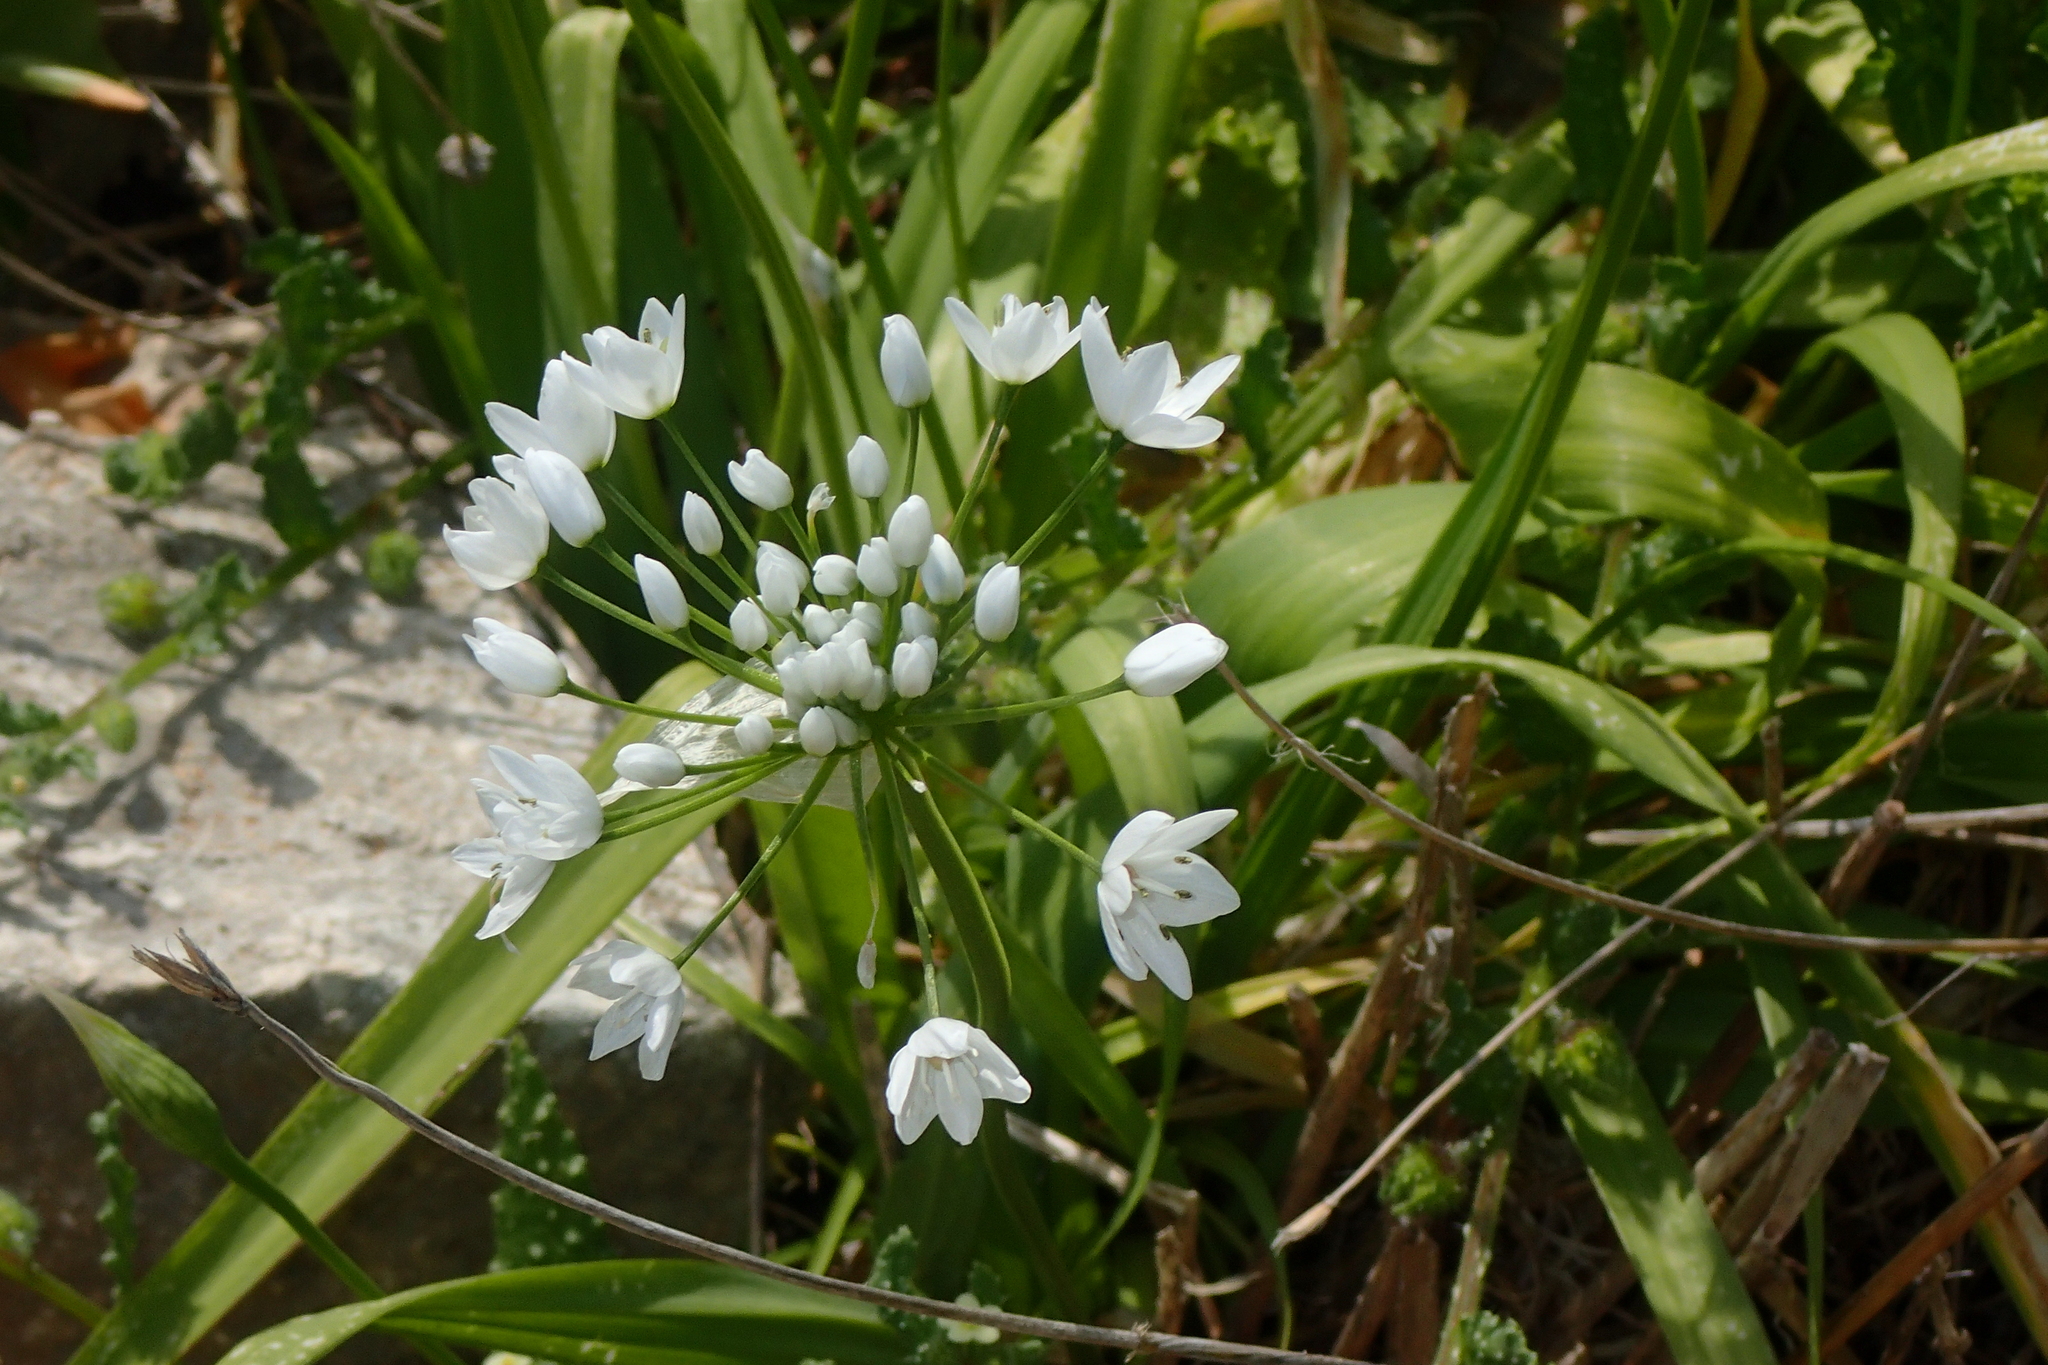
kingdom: Plantae
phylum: Tracheophyta
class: Liliopsida
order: Asparagales
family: Amaryllidaceae
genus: Allium
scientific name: Allium neapolitanum
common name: Neapolitan garlic
